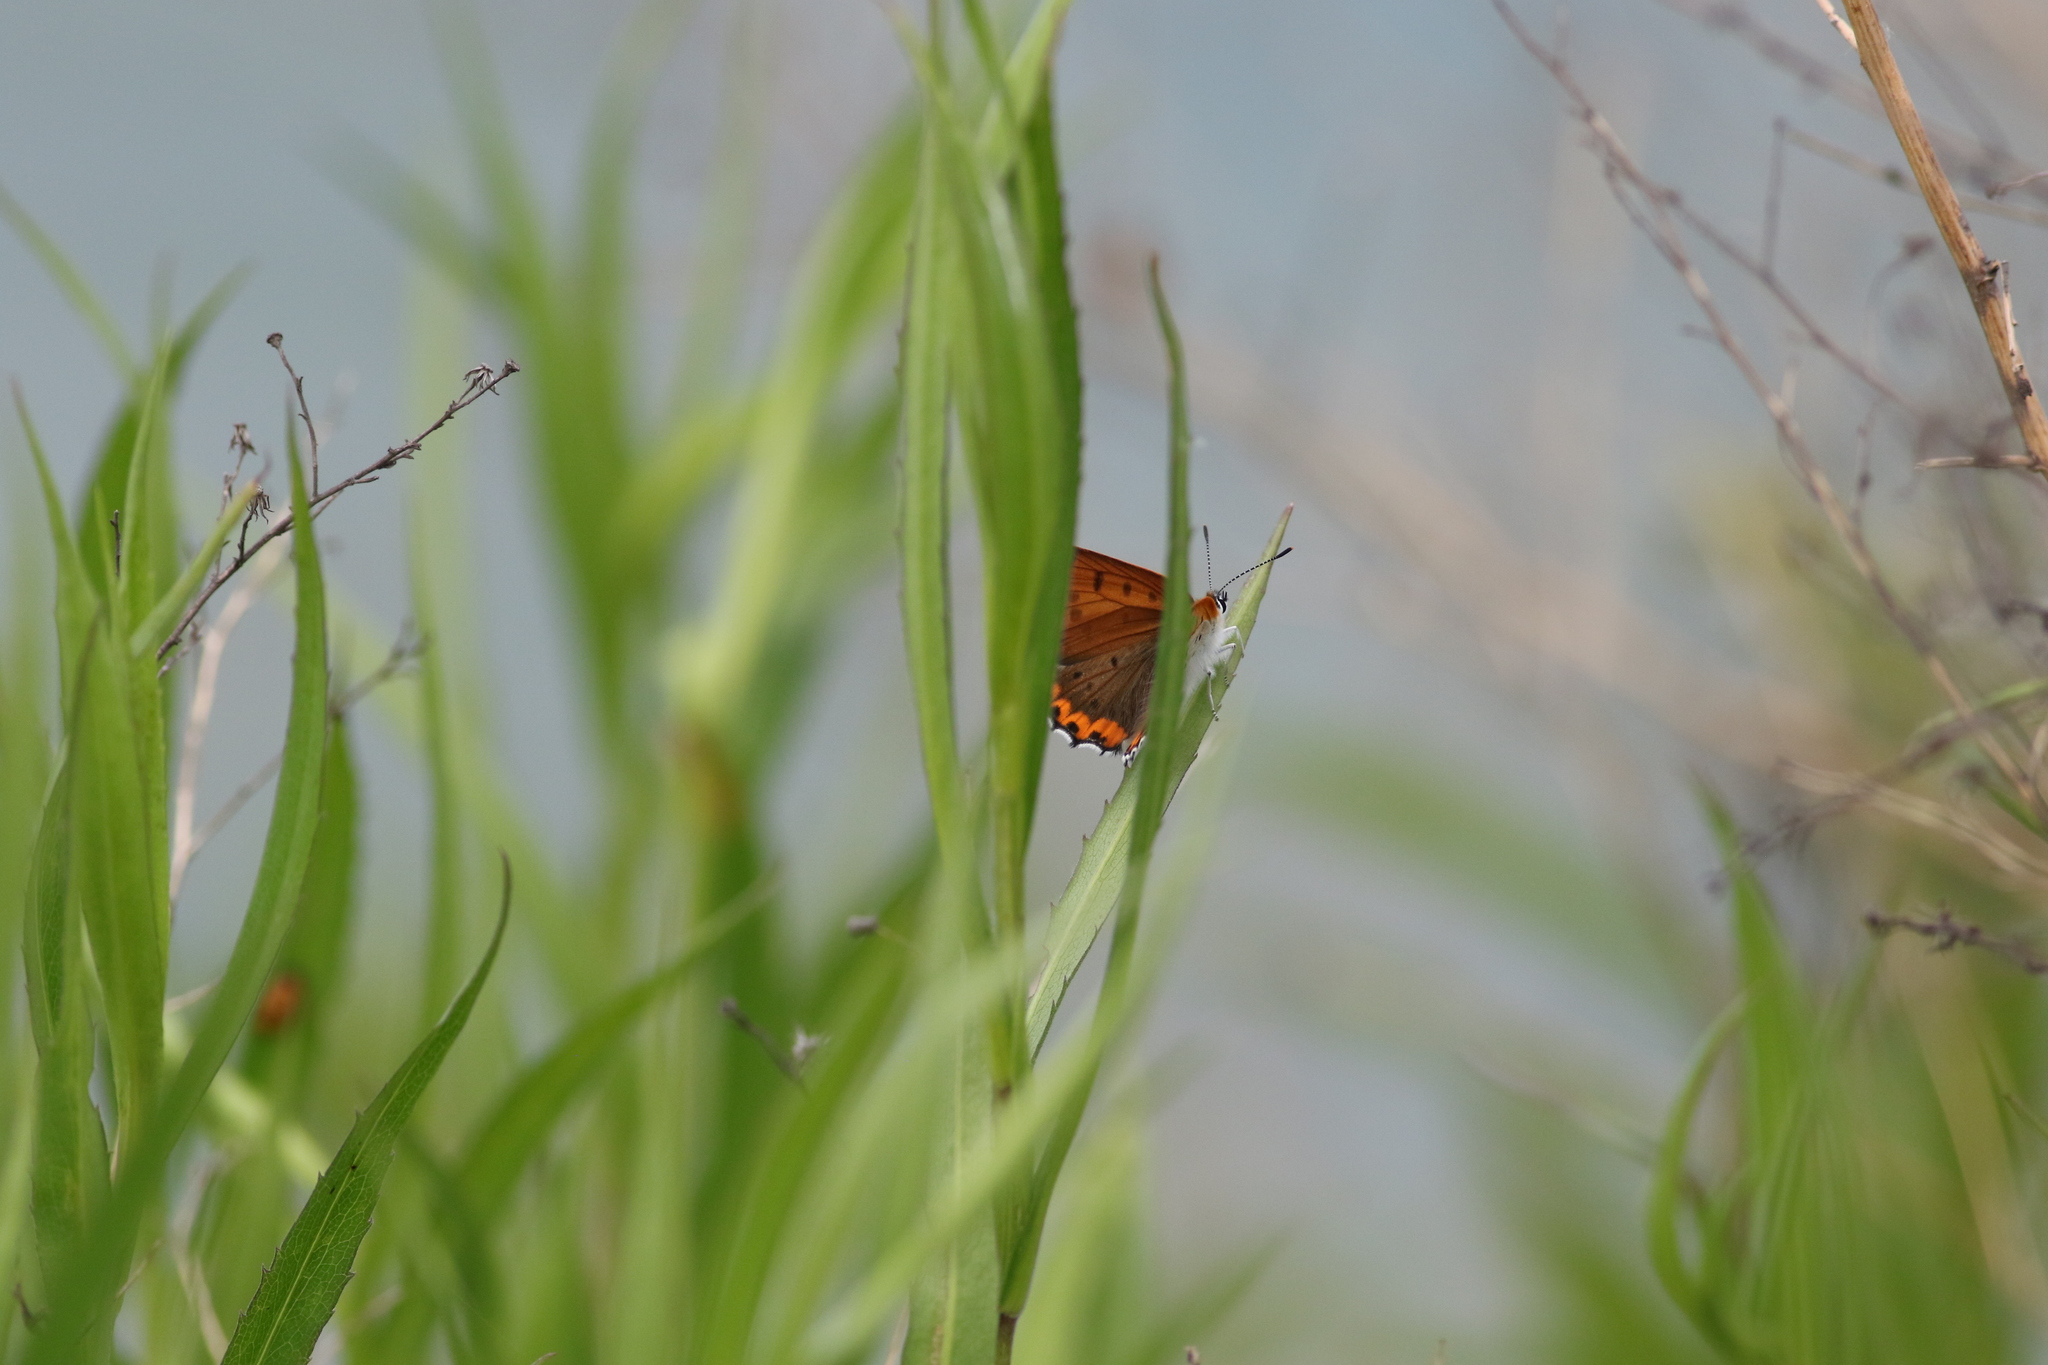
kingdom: Animalia
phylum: Arthropoda
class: Insecta
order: Lepidoptera
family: Lycaenidae
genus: Tharsalea
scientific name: Tharsalea hyllus
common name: Bronze copper
